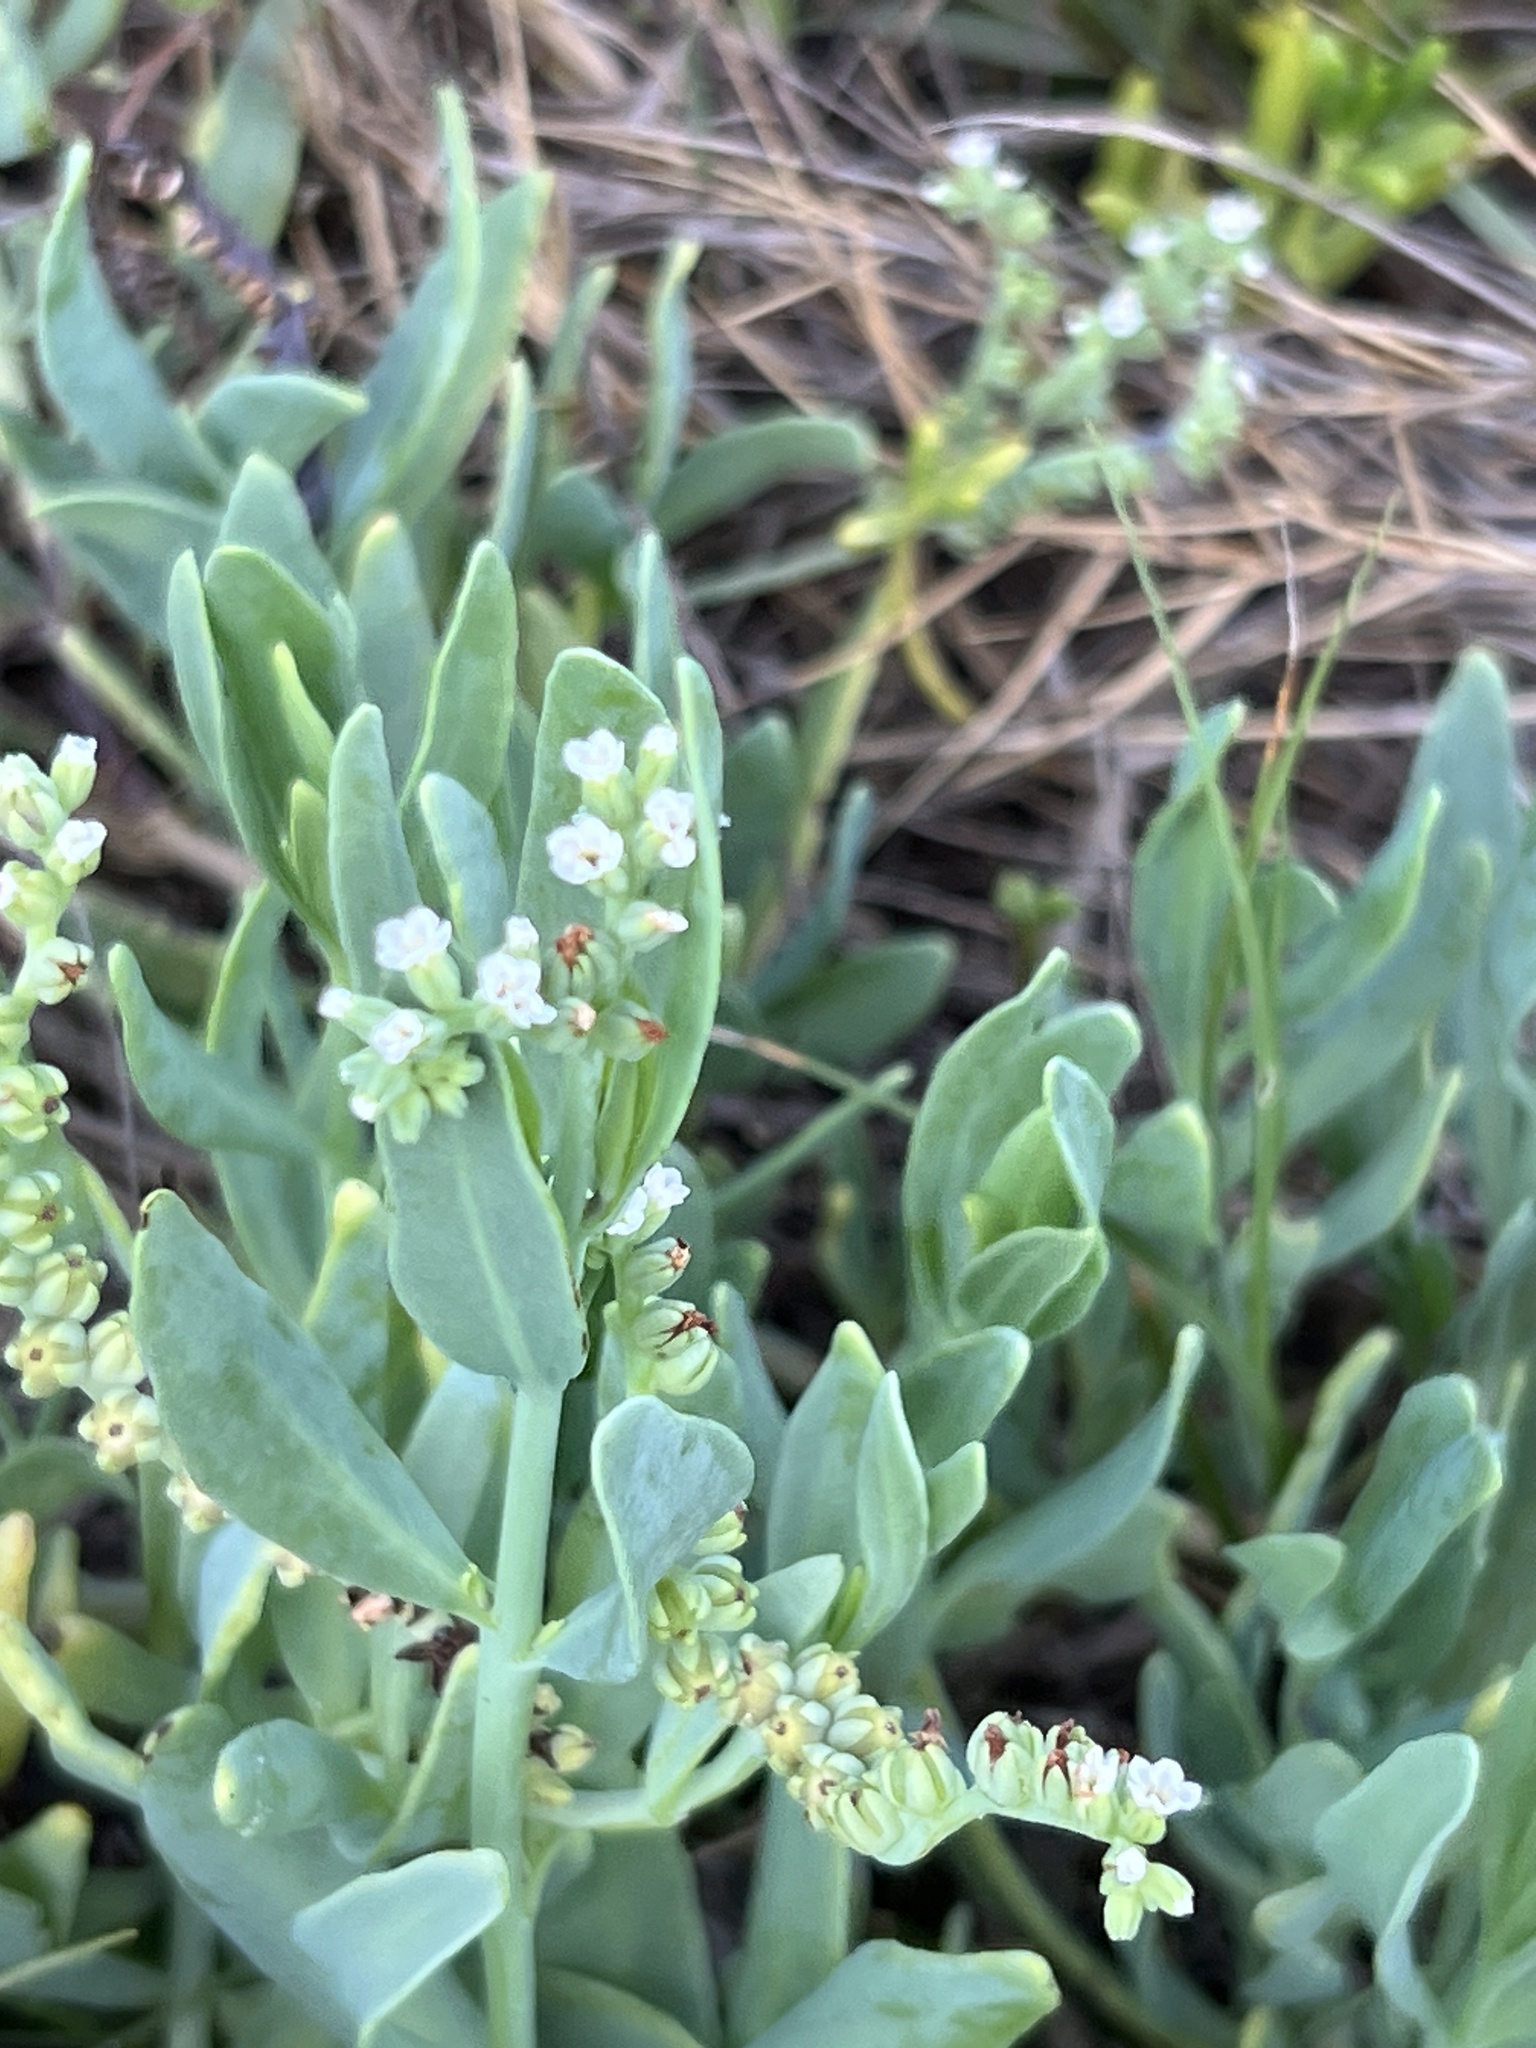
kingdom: Plantae
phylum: Tracheophyta
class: Magnoliopsida
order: Boraginales
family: Heliotropiaceae
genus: Heliotropium
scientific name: Heliotropium curassavicum
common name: Seaside heliotrope
